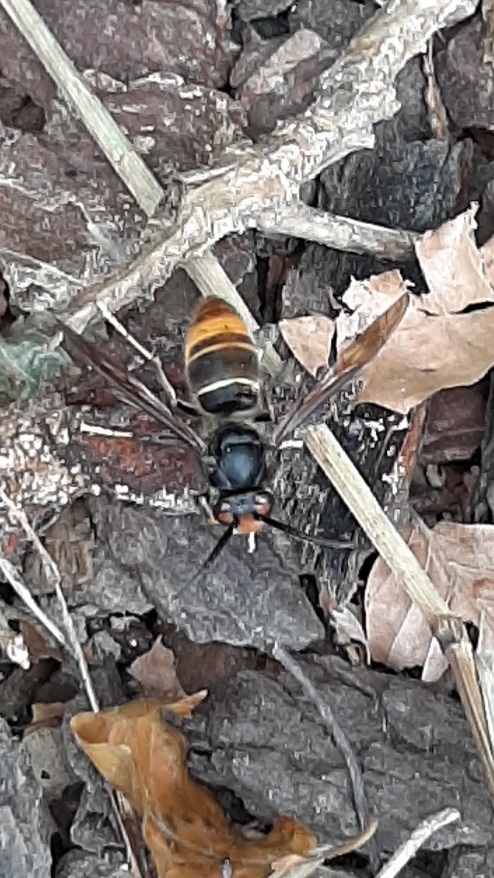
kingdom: Animalia
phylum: Arthropoda
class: Insecta
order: Hymenoptera
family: Vespidae
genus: Vespa
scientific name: Vespa velutina
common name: Asian hornet
